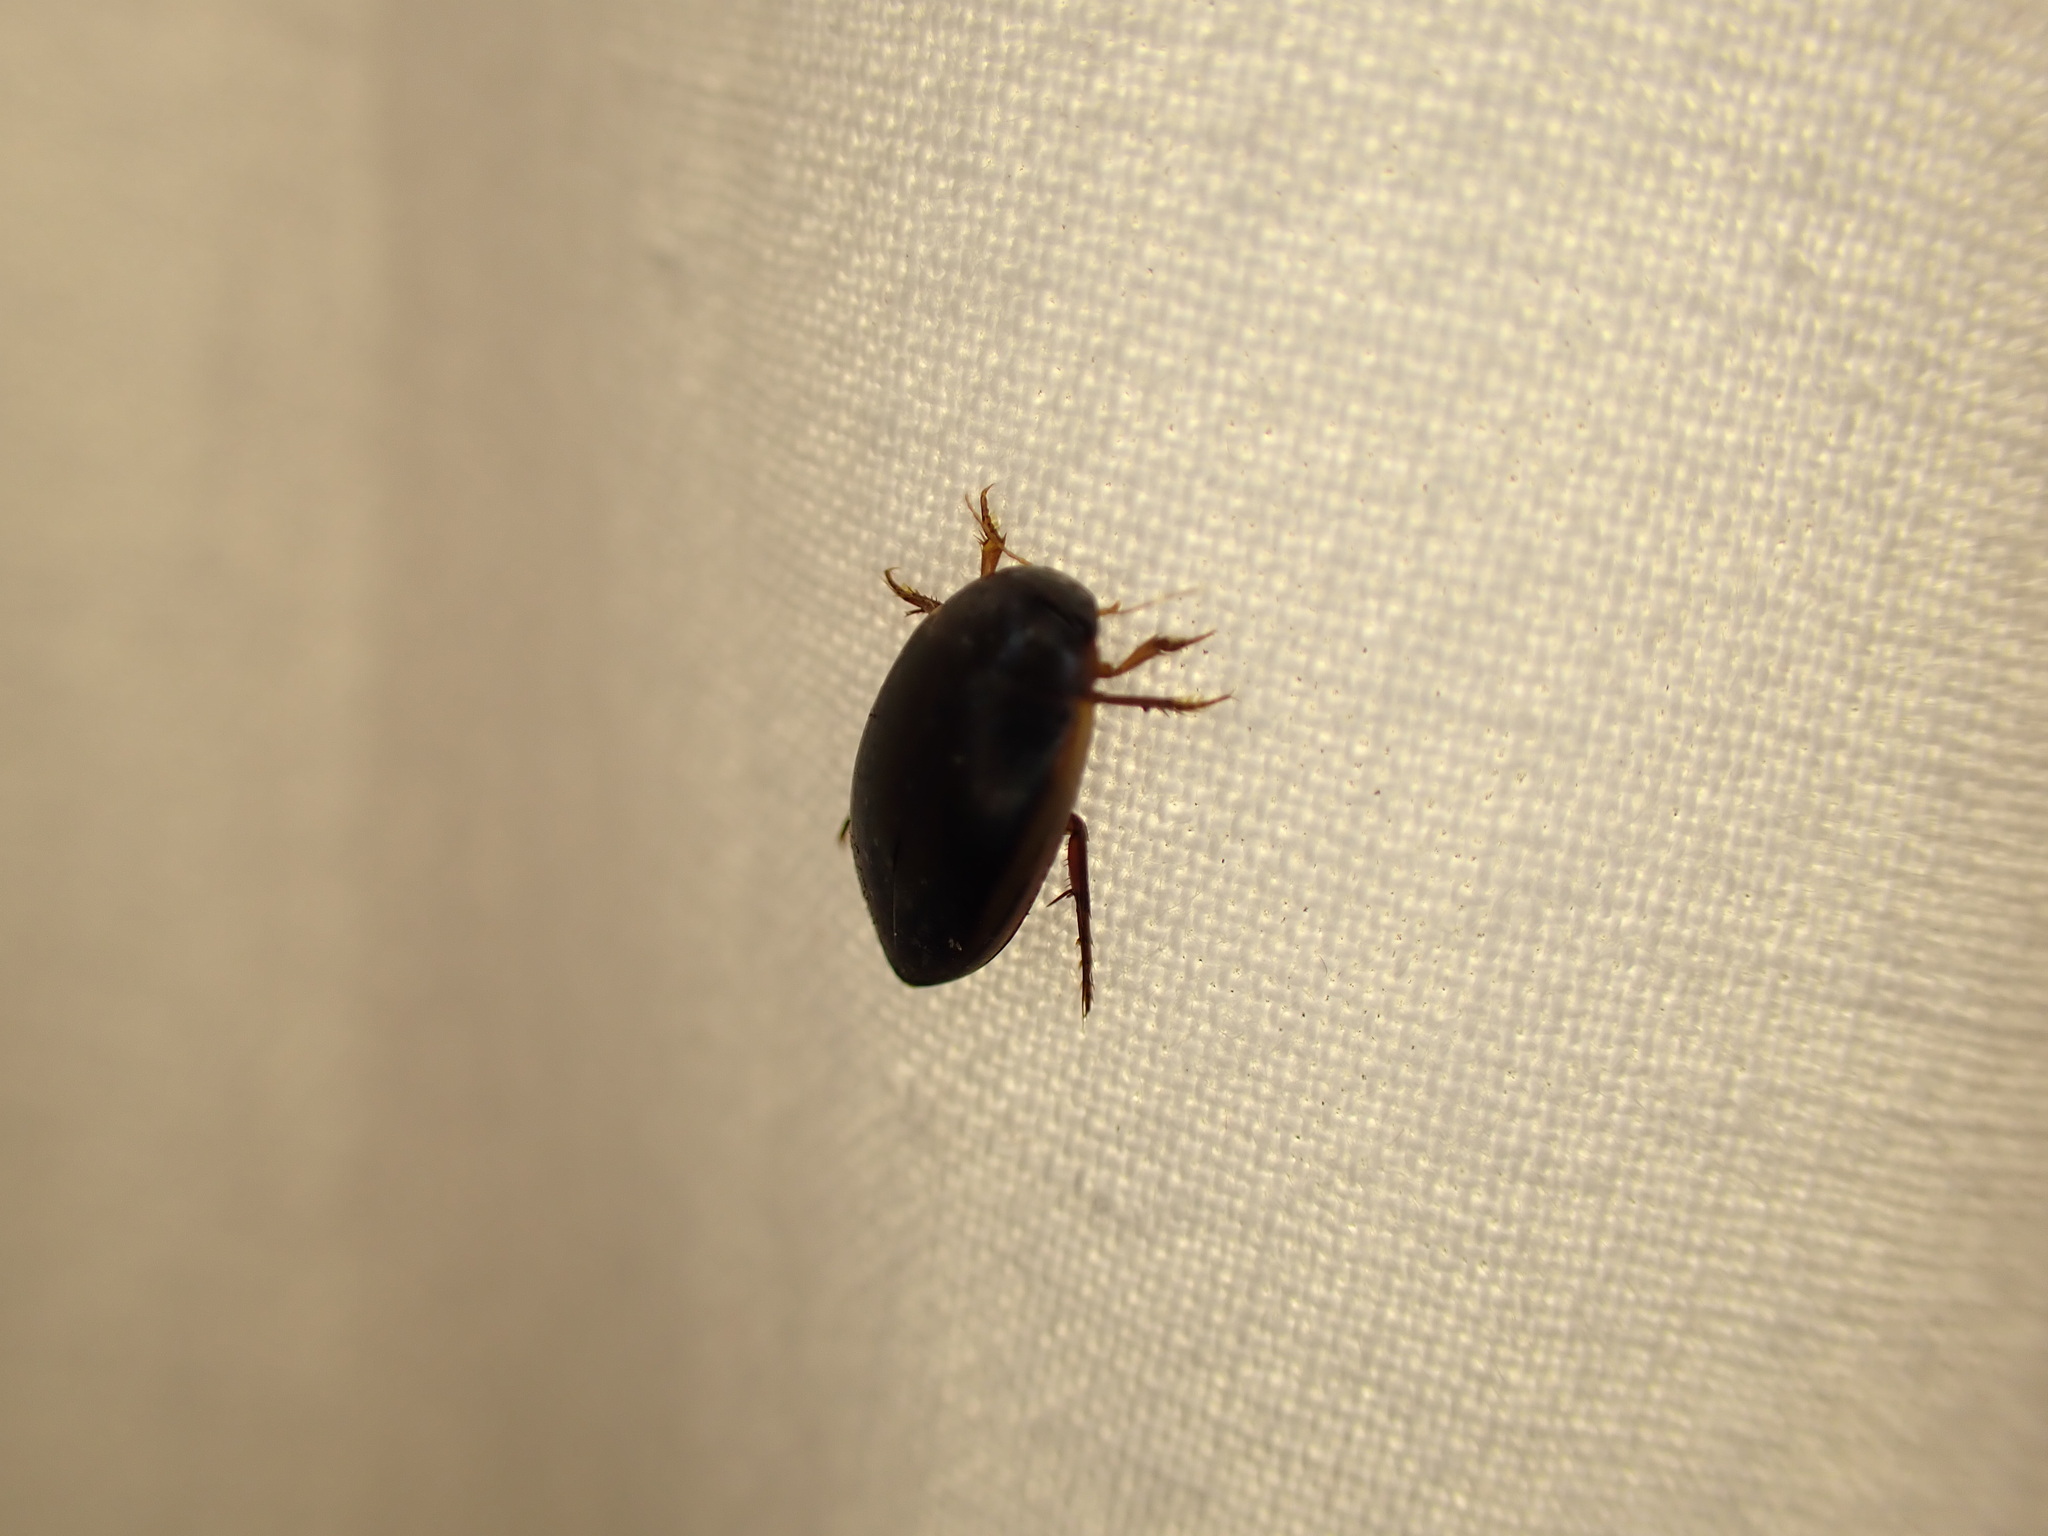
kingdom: Animalia
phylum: Arthropoda
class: Insecta
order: Coleoptera
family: Dytiscidae
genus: Ilybius
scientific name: Ilybius fuliginosus
